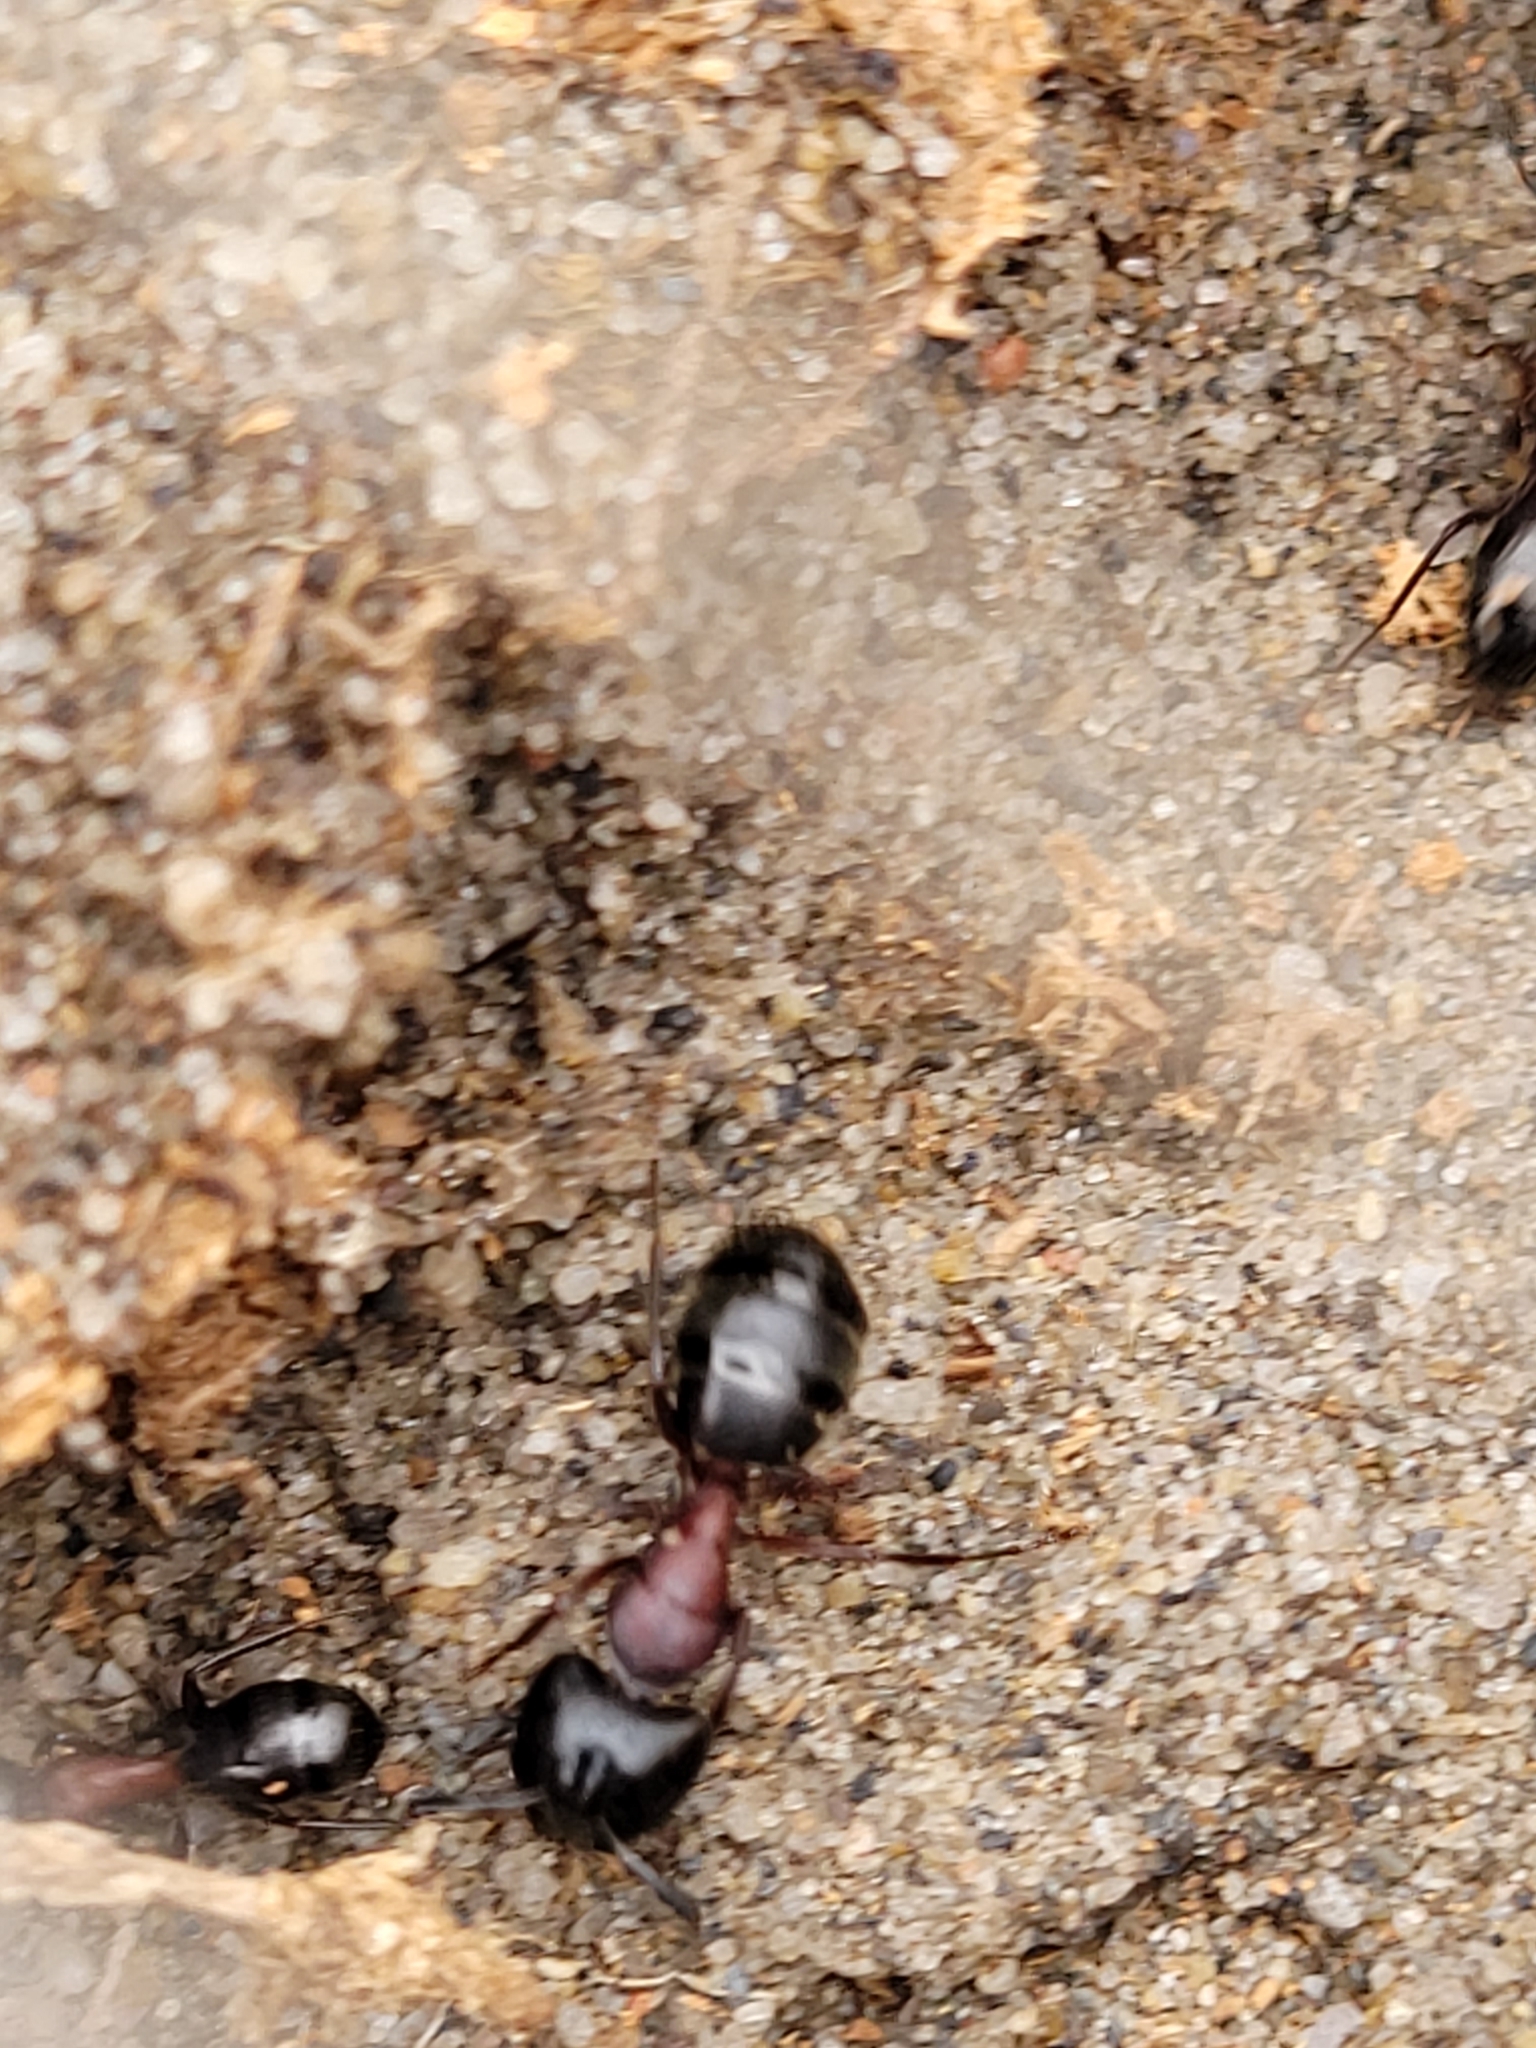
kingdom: Animalia
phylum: Arthropoda
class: Insecta
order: Hymenoptera
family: Formicidae
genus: Camponotus
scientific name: Camponotus novaeboracensis
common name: New york carpenter ant
